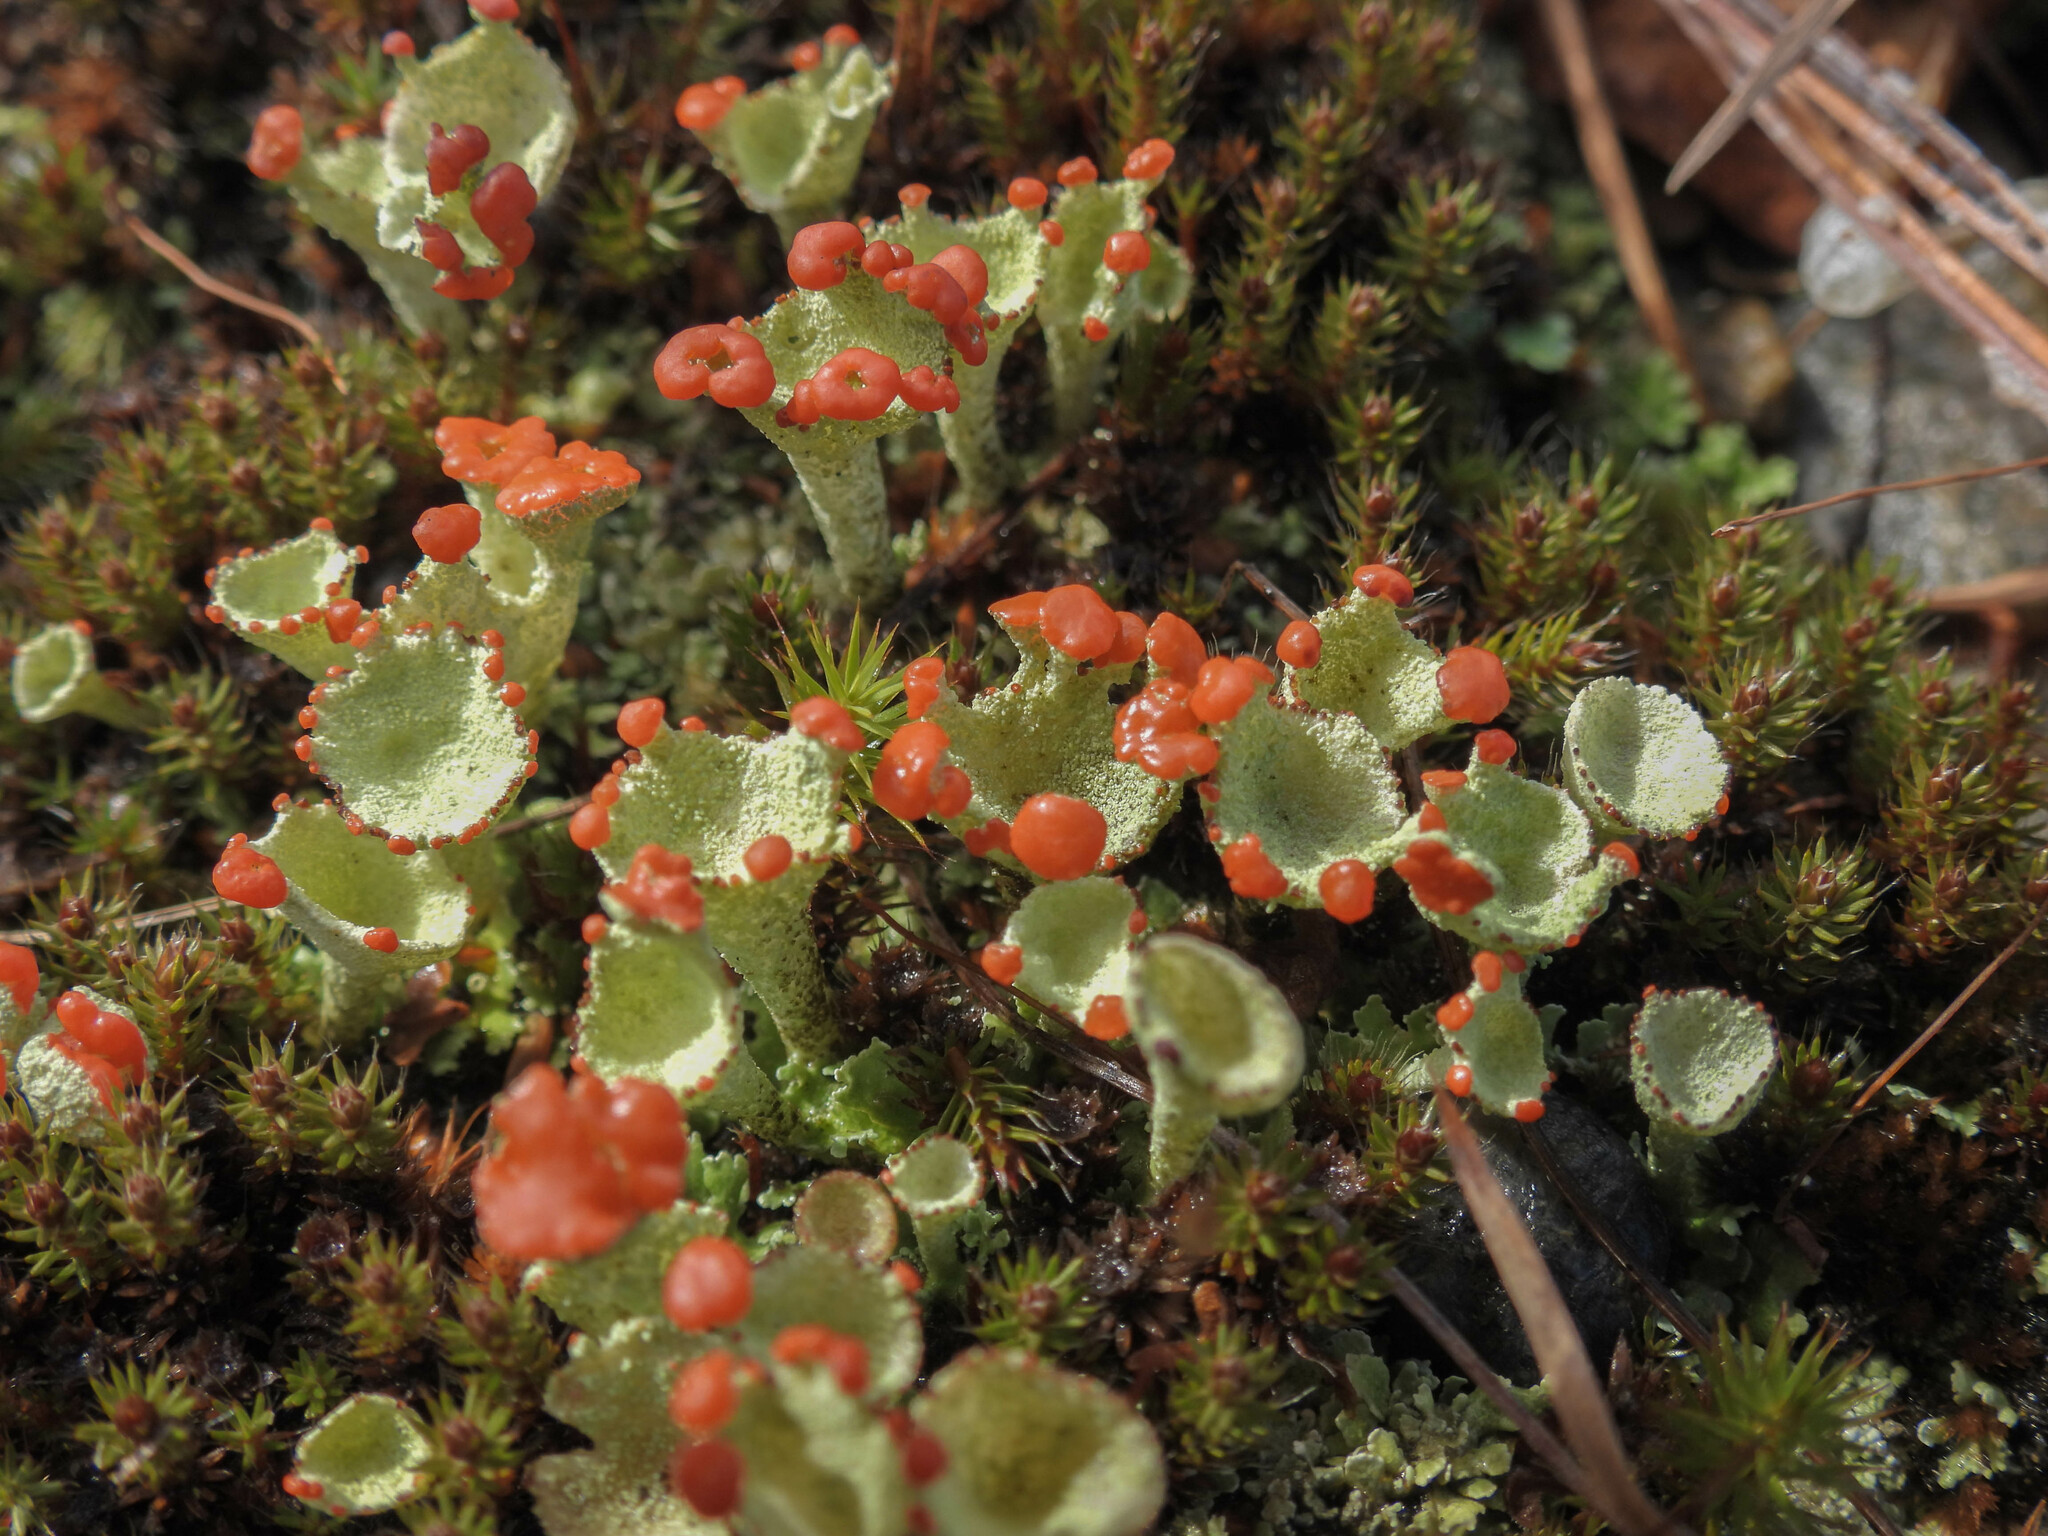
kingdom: Fungi
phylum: Ascomycota
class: Lecanoromycetes
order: Lecanorales
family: Cladoniaceae
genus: Cladonia
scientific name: Cladonia pleurota
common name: Red-fruited pixie cup
